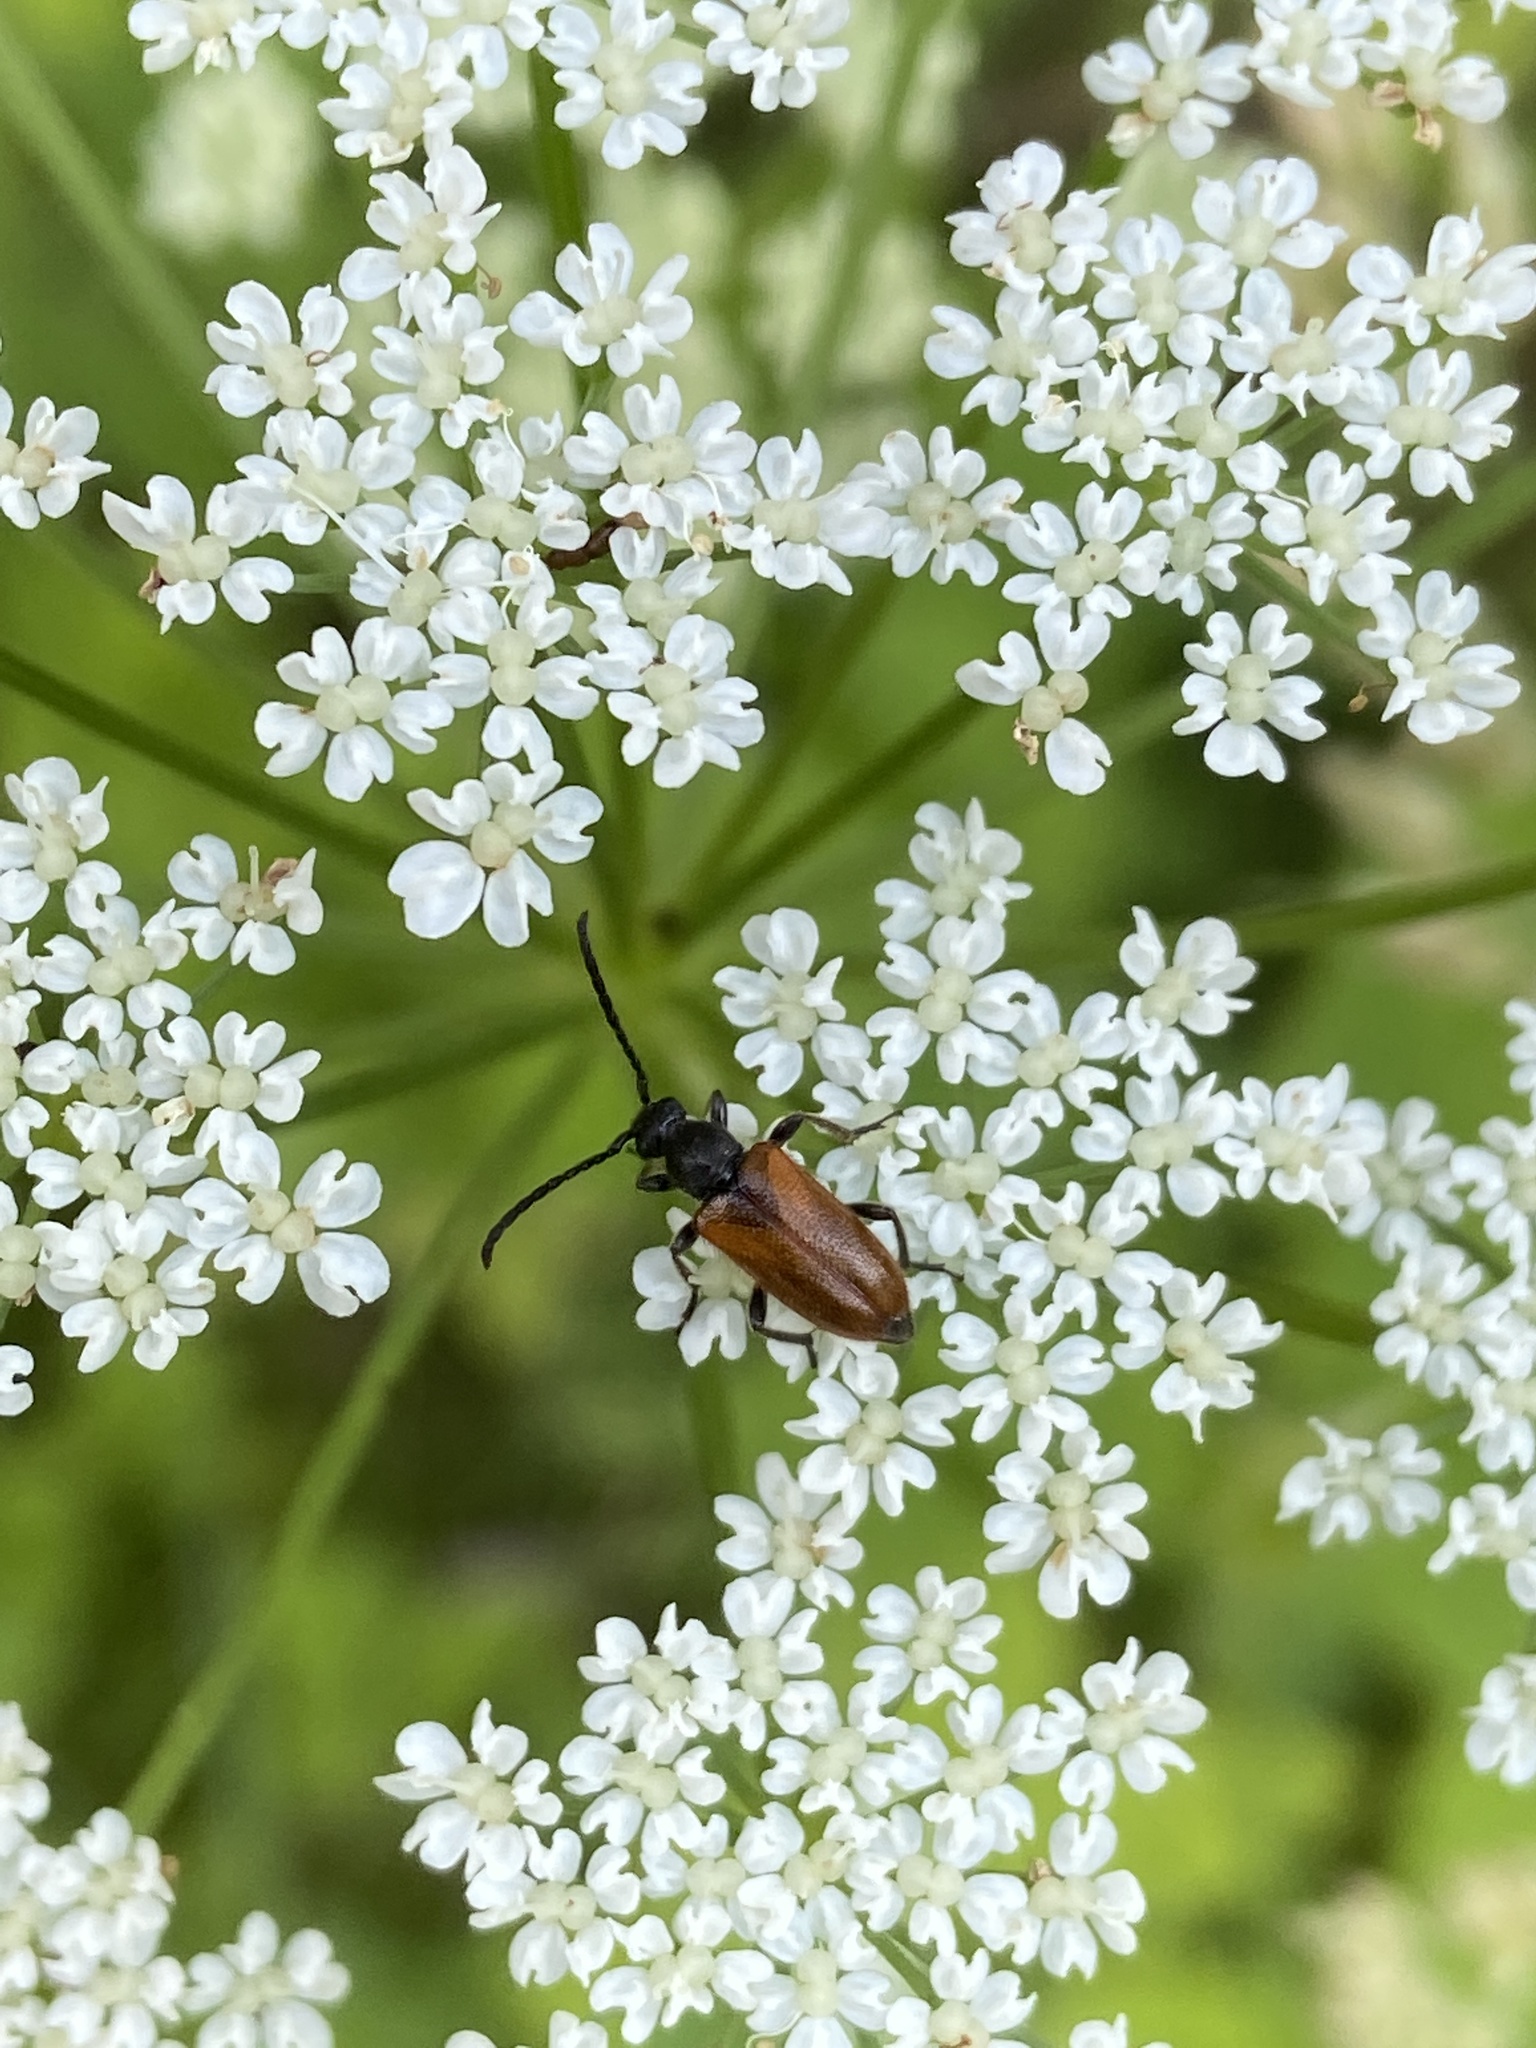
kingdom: Animalia
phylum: Arthropoda
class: Insecta
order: Coleoptera
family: Cerambycidae
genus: Pseudovadonia
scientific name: Pseudovadonia livida
